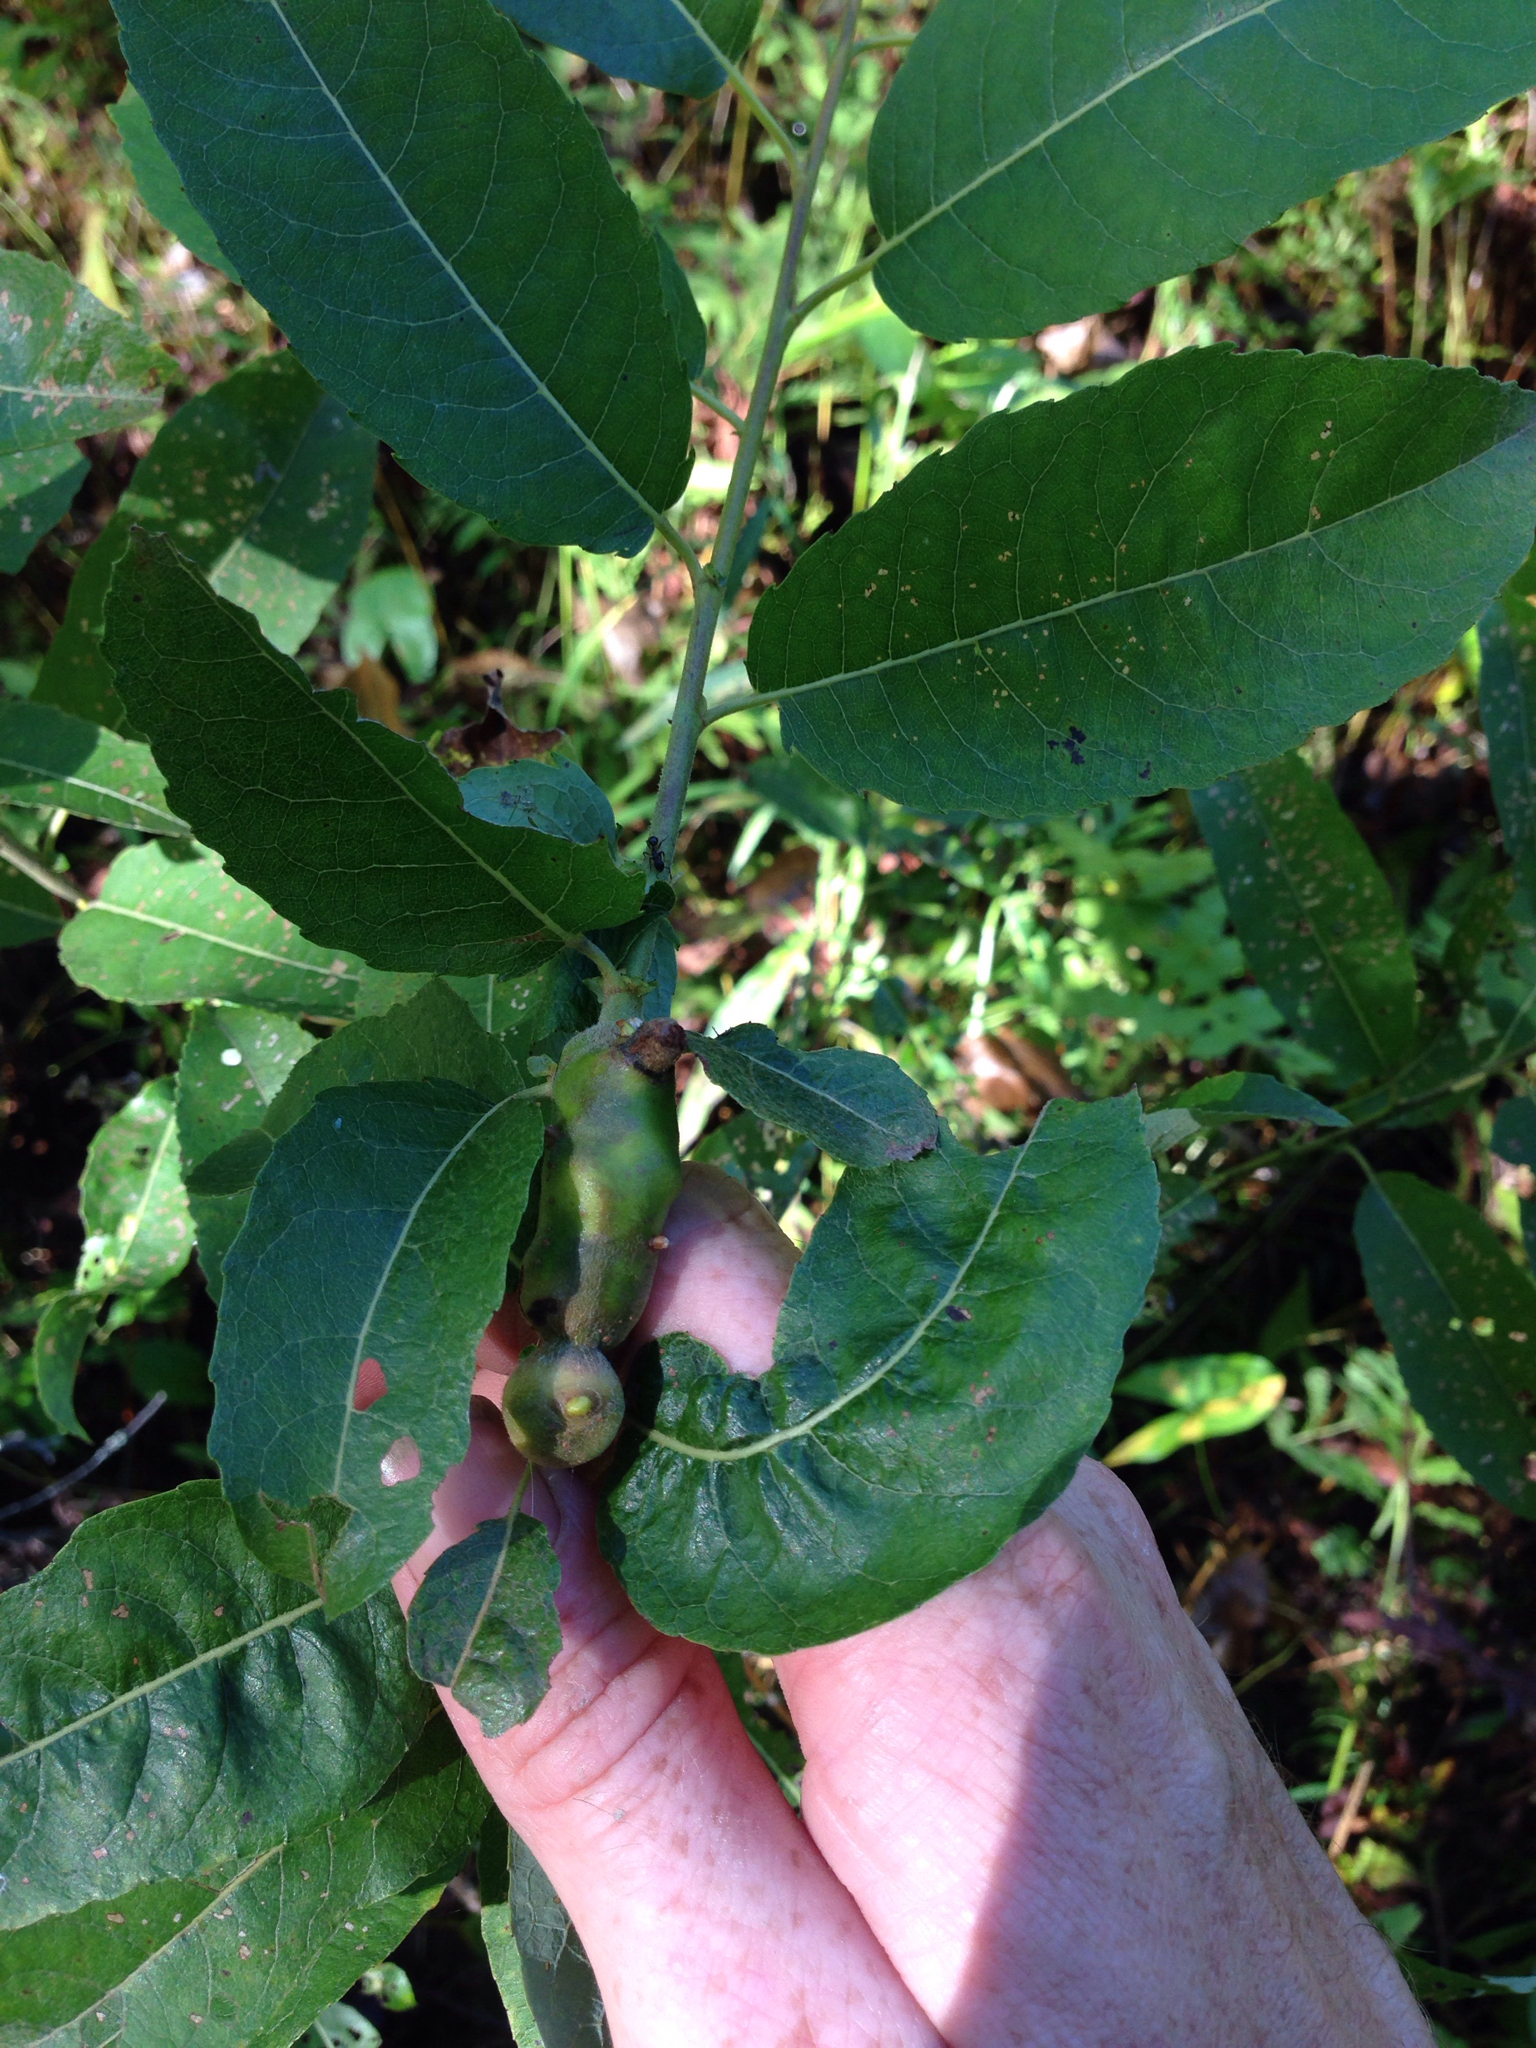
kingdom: Animalia
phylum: Arthropoda
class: Insecta
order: Diptera
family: Cecidomyiidae
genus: Rabdophaga
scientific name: Rabdophaga salicisbatatas
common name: Potato gall midge
